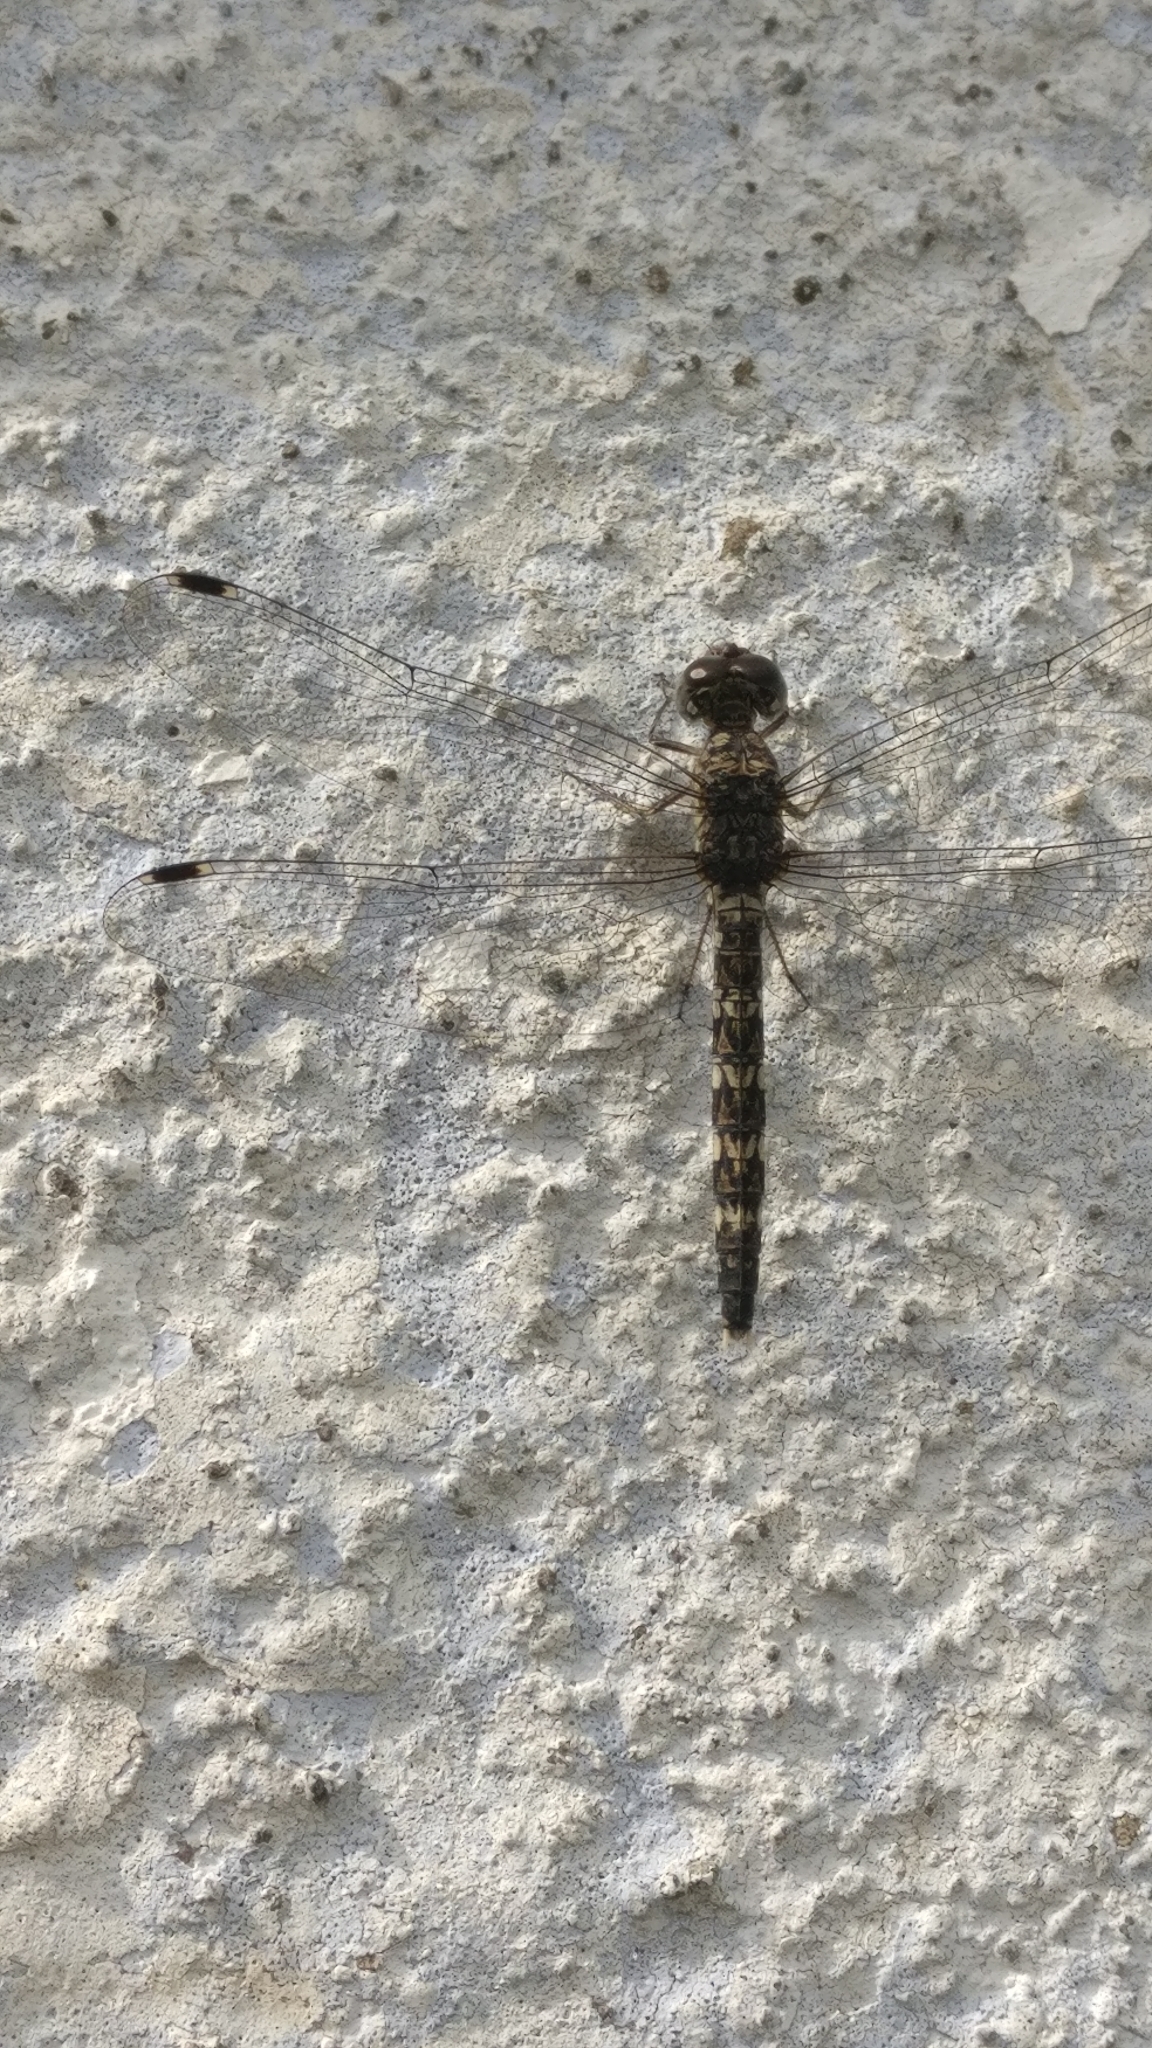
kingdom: Animalia
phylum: Arthropoda
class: Insecta
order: Odonata
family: Libellulidae
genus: Bradinopyga
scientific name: Bradinopyga geminata
